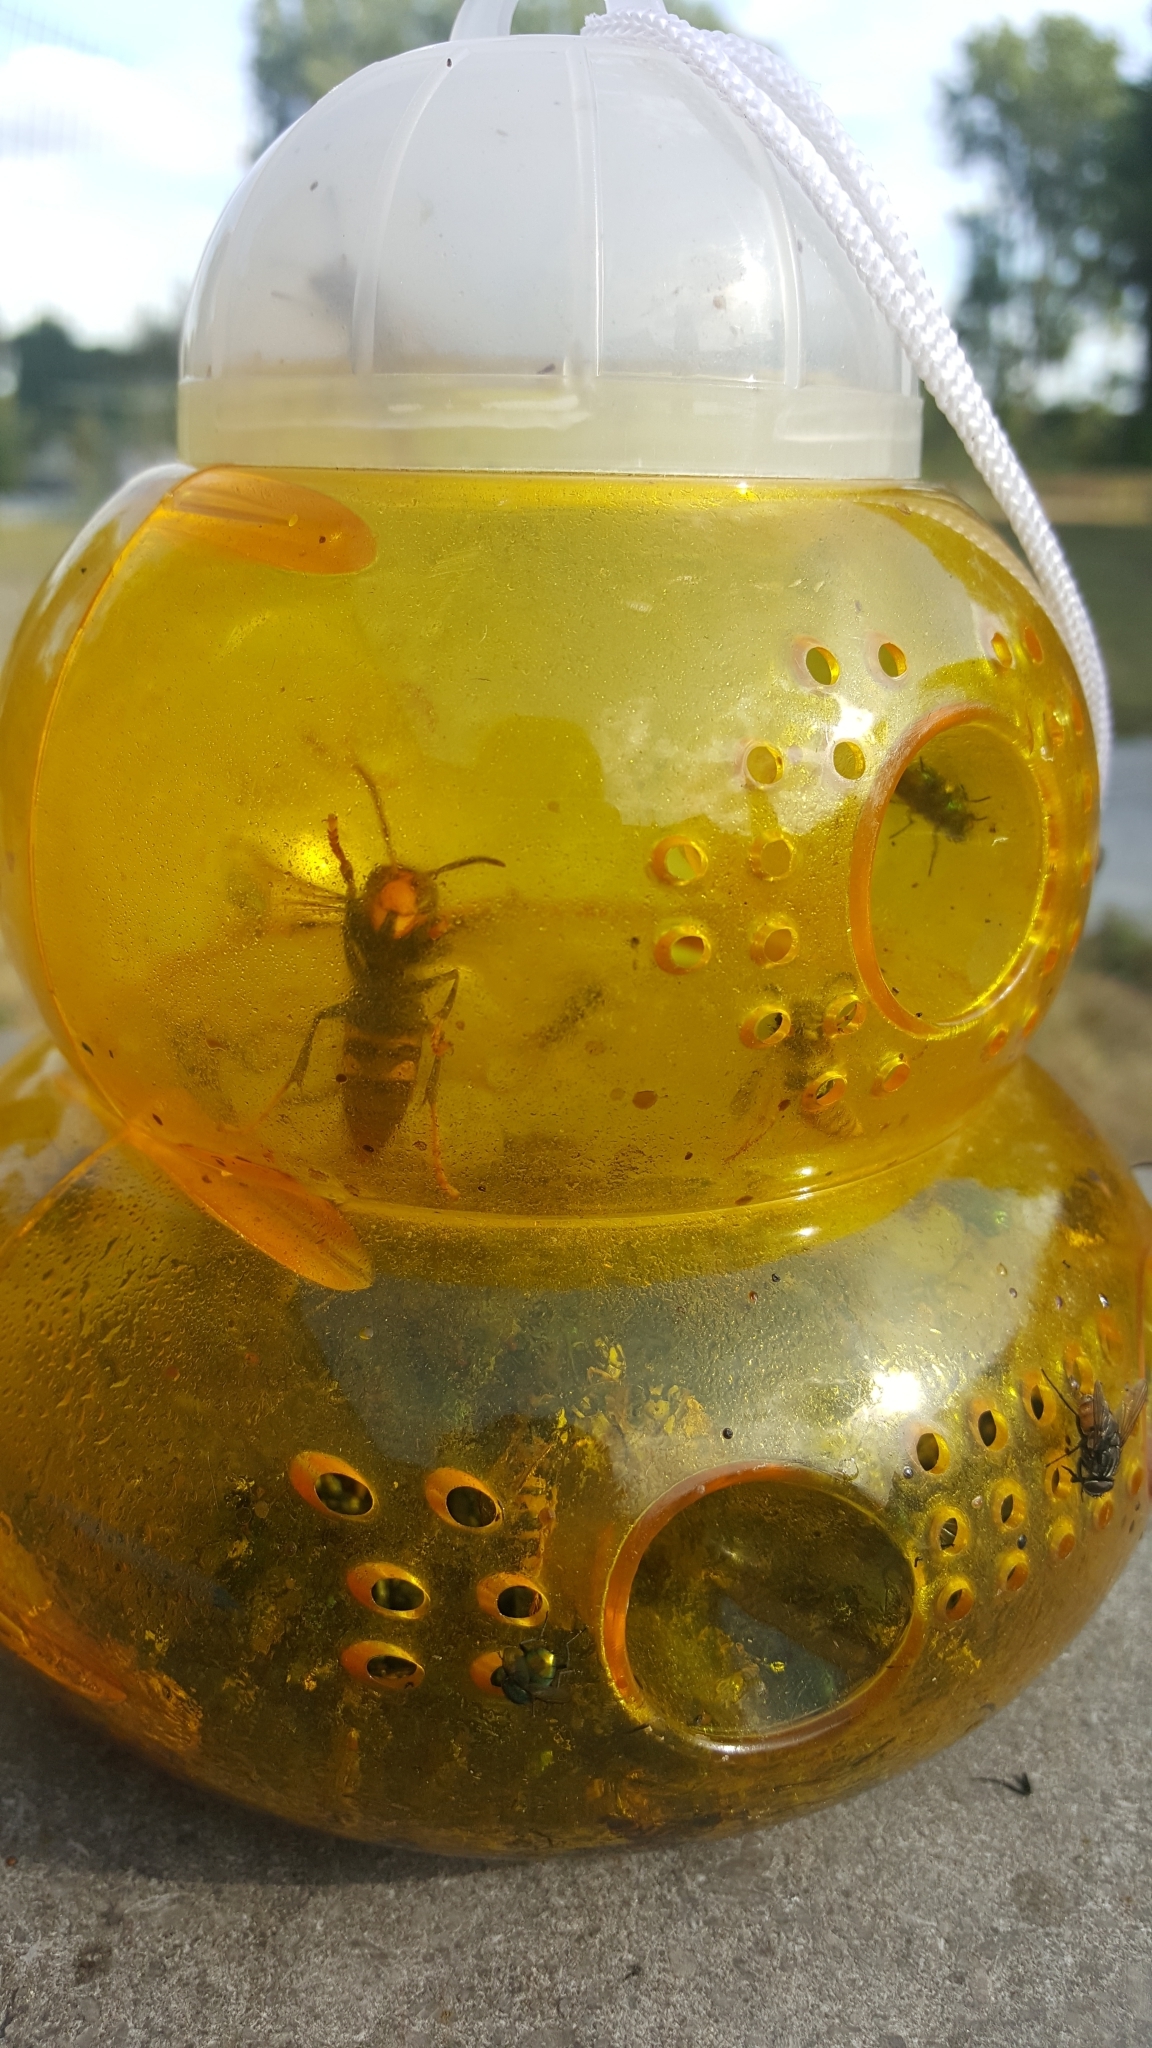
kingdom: Animalia
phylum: Arthropoda
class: Insecta
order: Hymenoptera
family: Vespidae
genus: Vespa
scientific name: Vespa velutina
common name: Asian hornet
